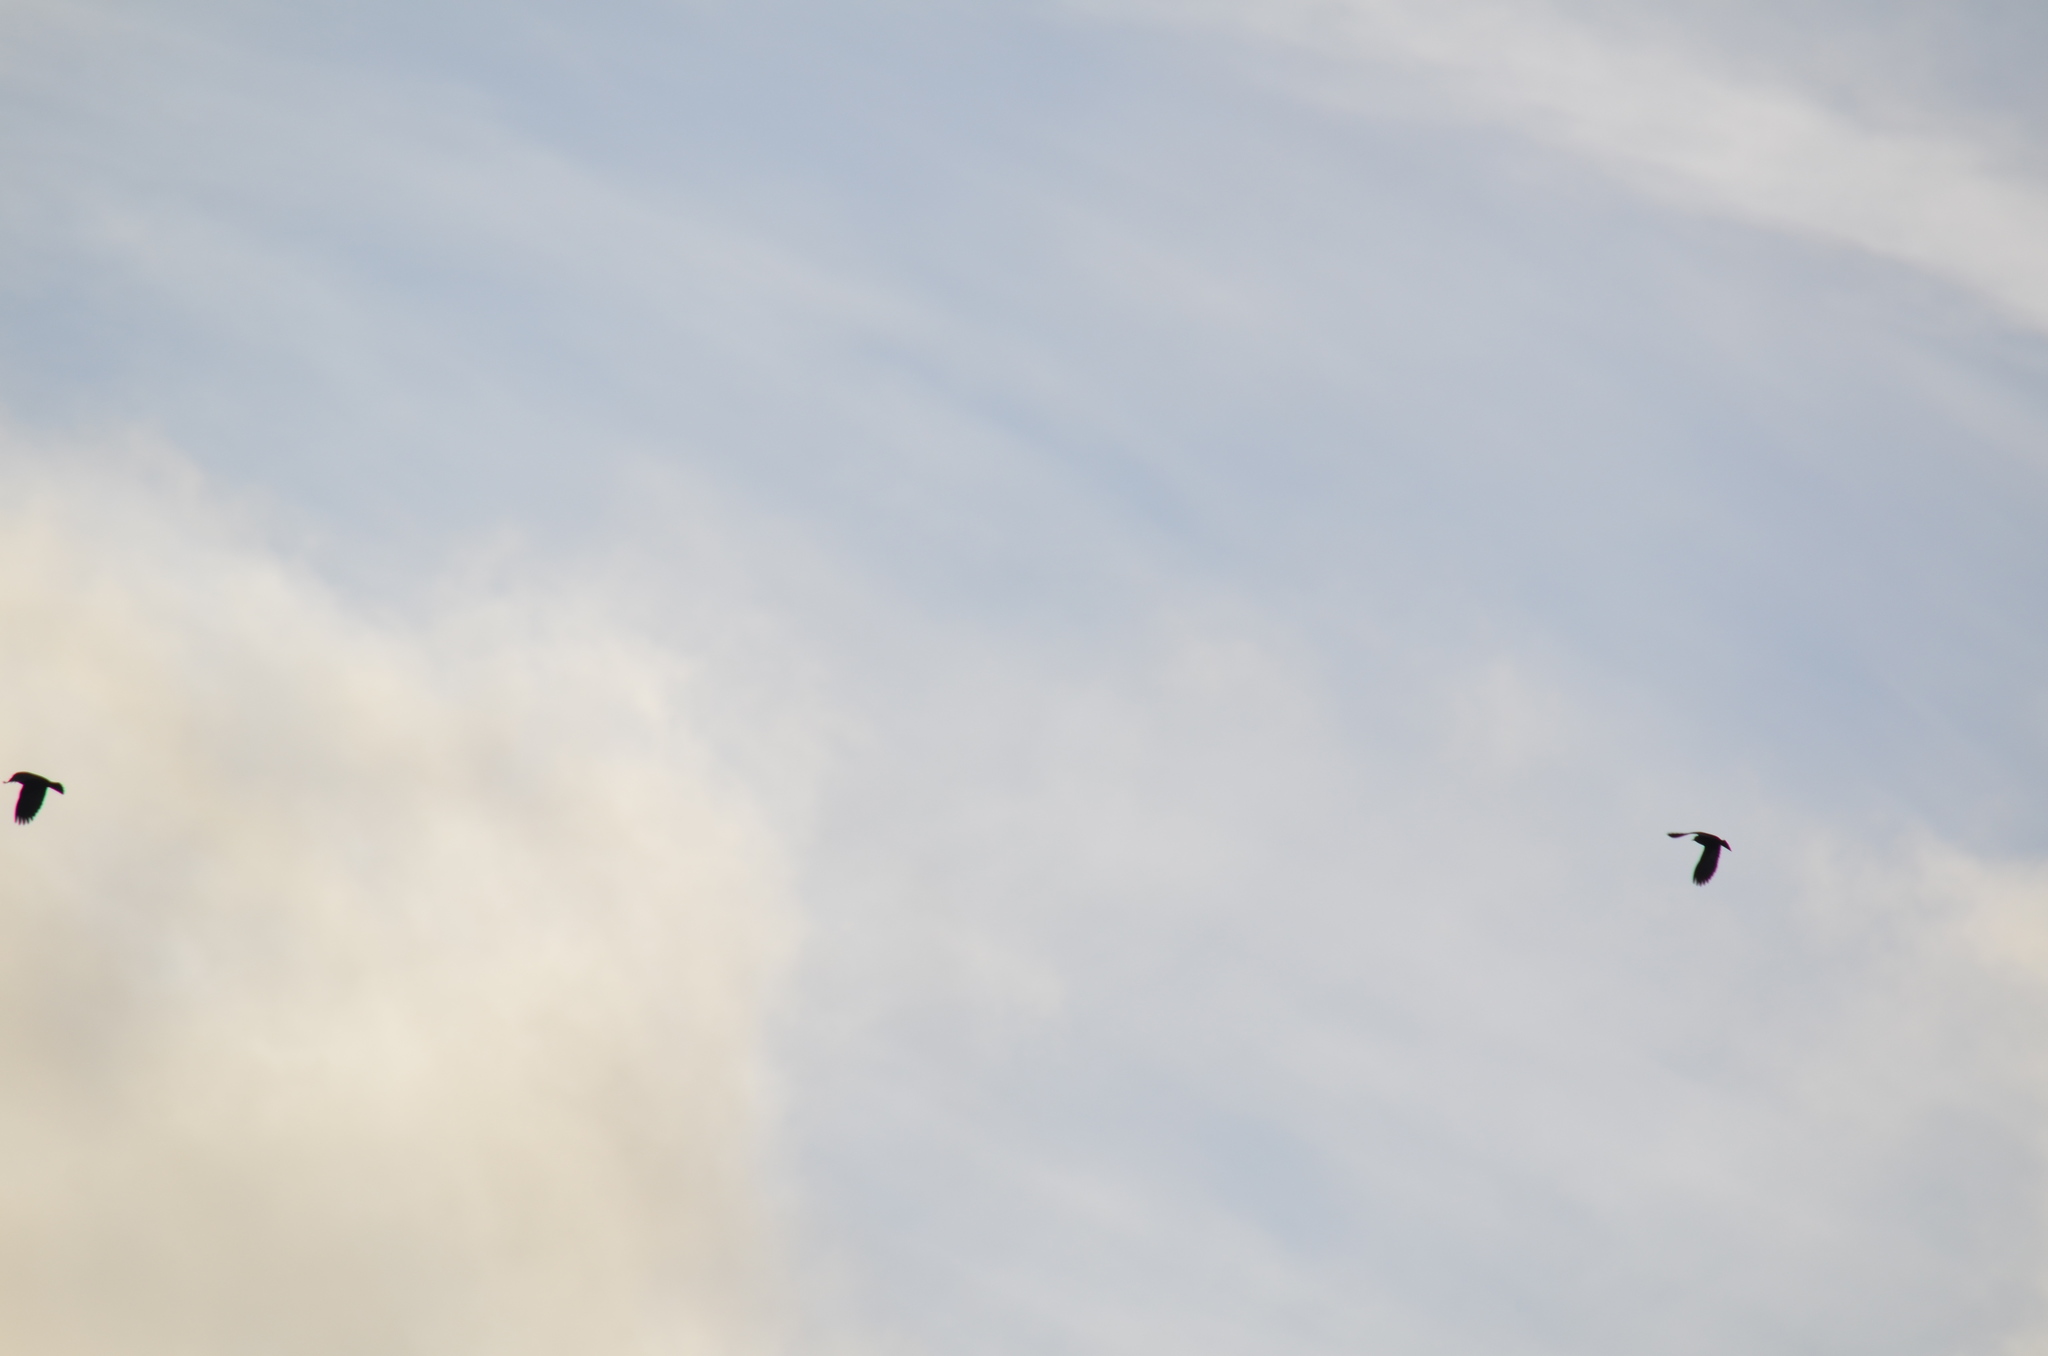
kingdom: Animalia
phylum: Chordata
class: Aves
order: Passeriformes
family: Icteridae
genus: Agelaius
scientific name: Agelaius phoeniceus
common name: Red-winged blackbird
